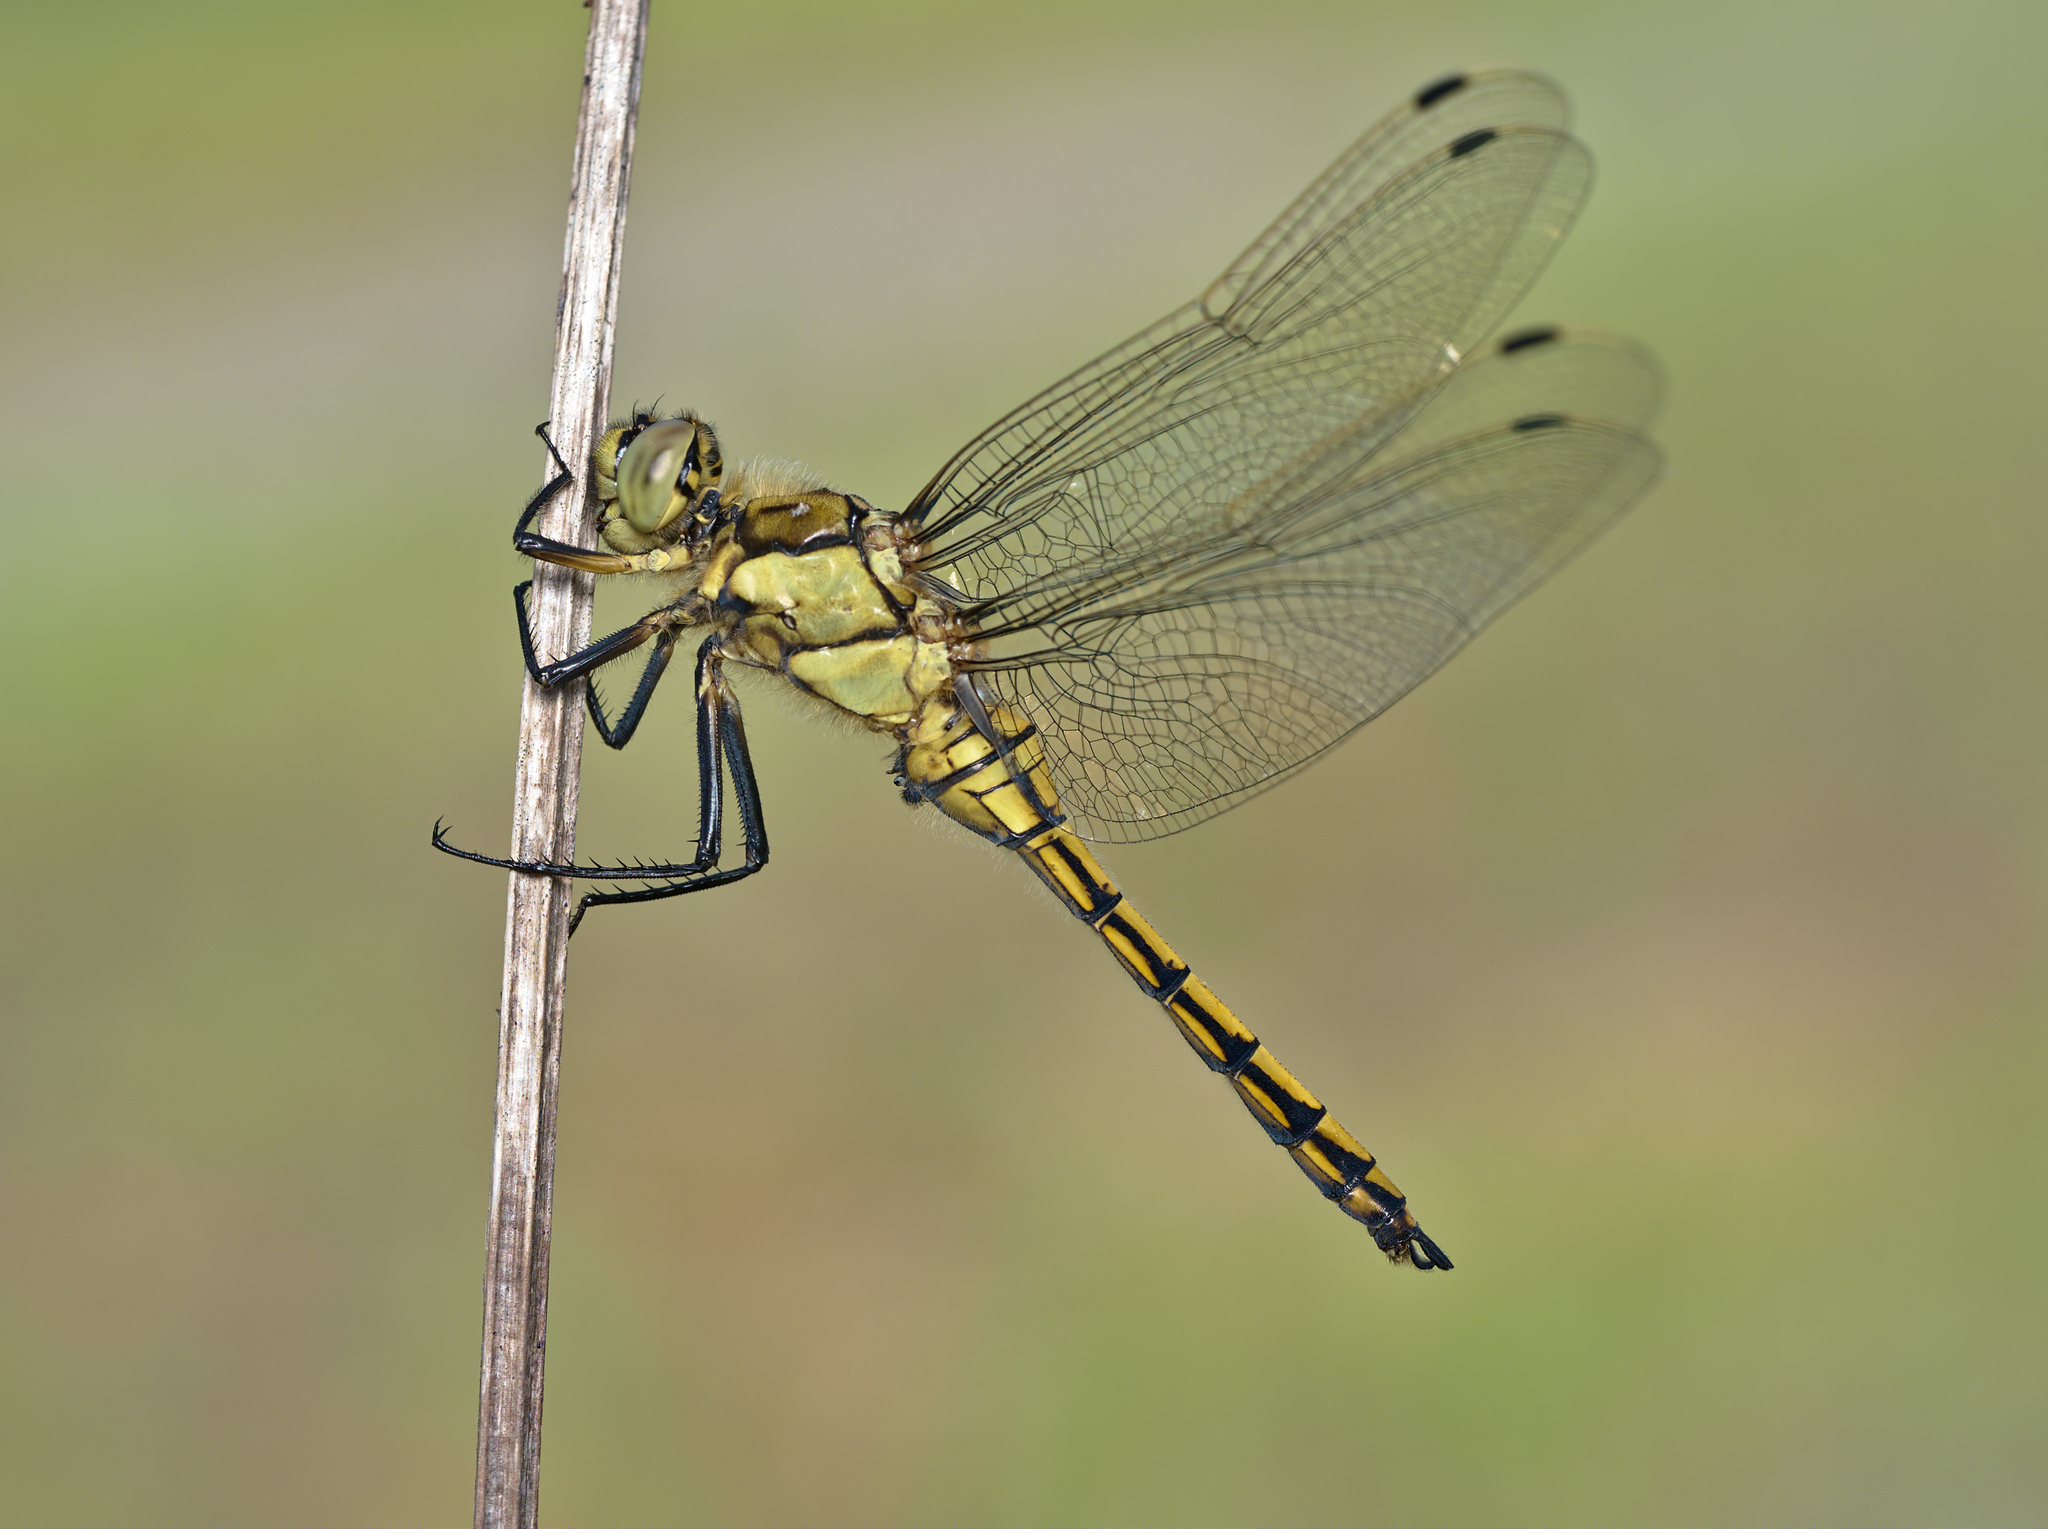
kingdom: Animalia
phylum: Arthropoda
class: Insecta
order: Odonata
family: Libellulidae
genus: Orthetrum
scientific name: Orthetrum cancellatum
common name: Black-tailed skimmer
